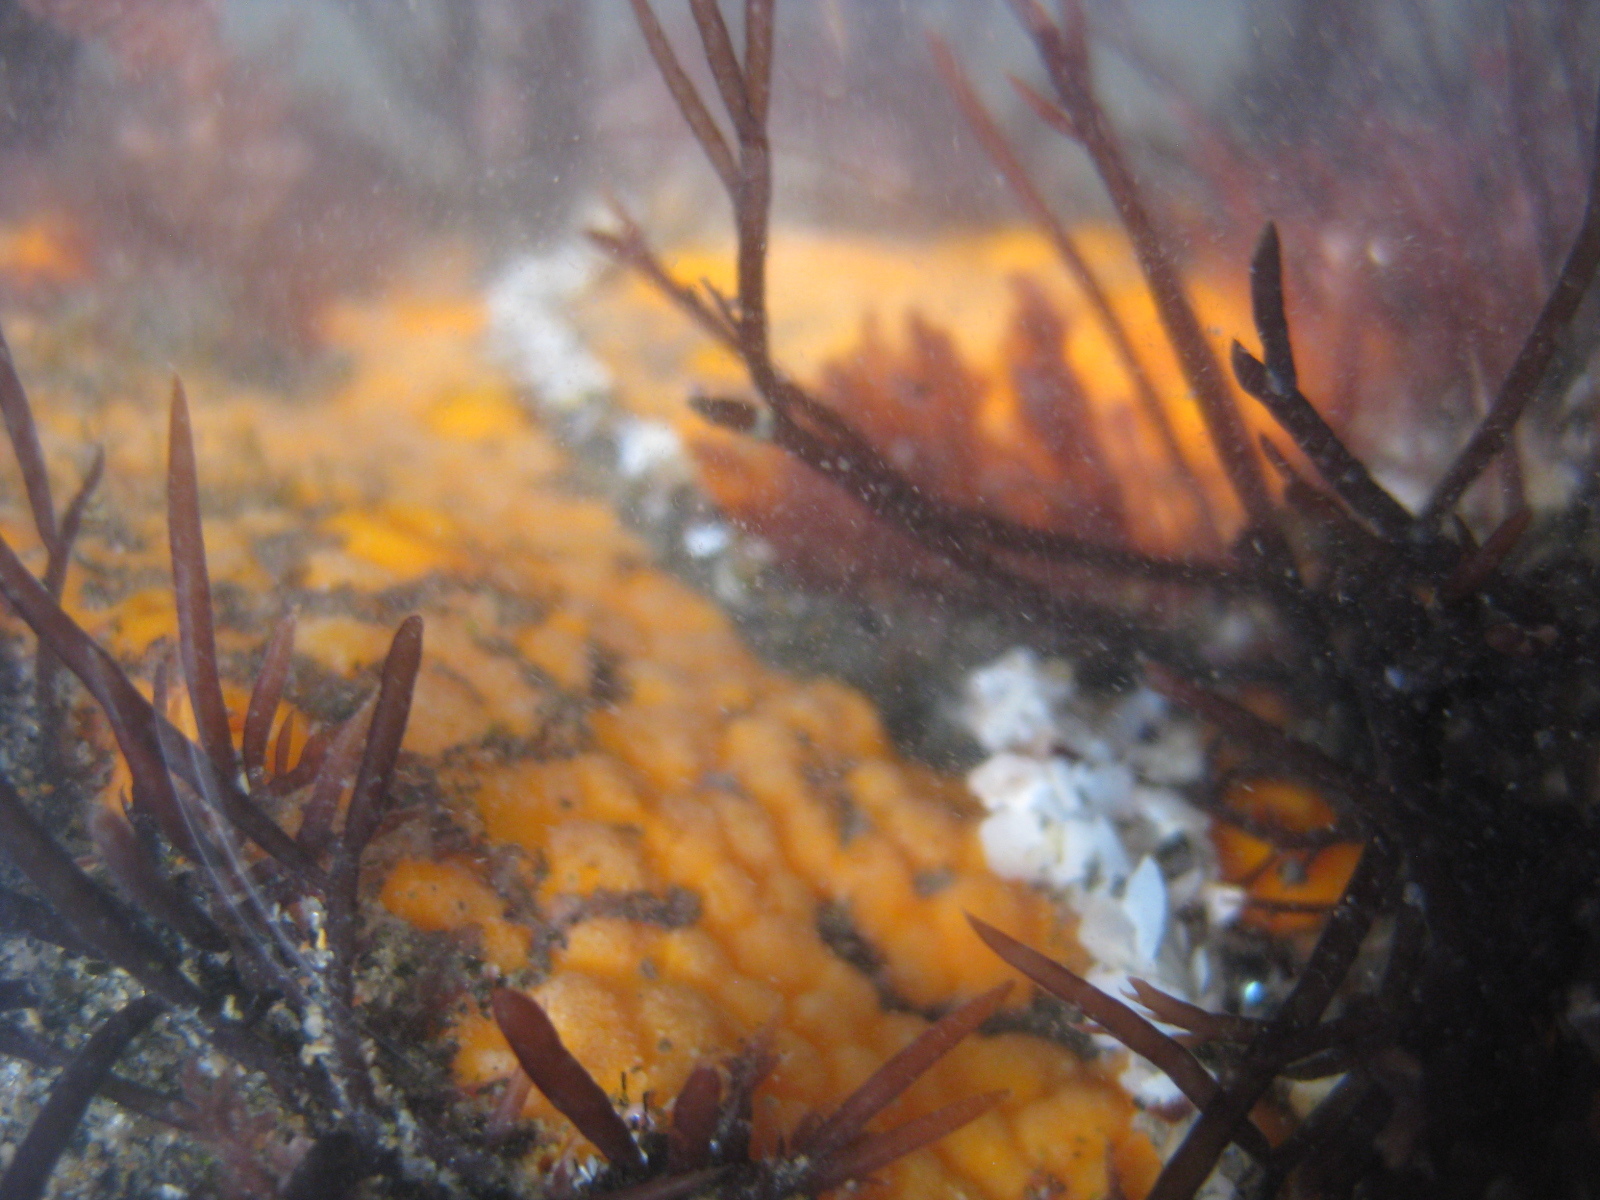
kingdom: Animalia
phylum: Porifera
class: Demospongiae
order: Clionaida
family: Clionaidae
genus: Cliona
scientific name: Cliona celata
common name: Boring sponge
